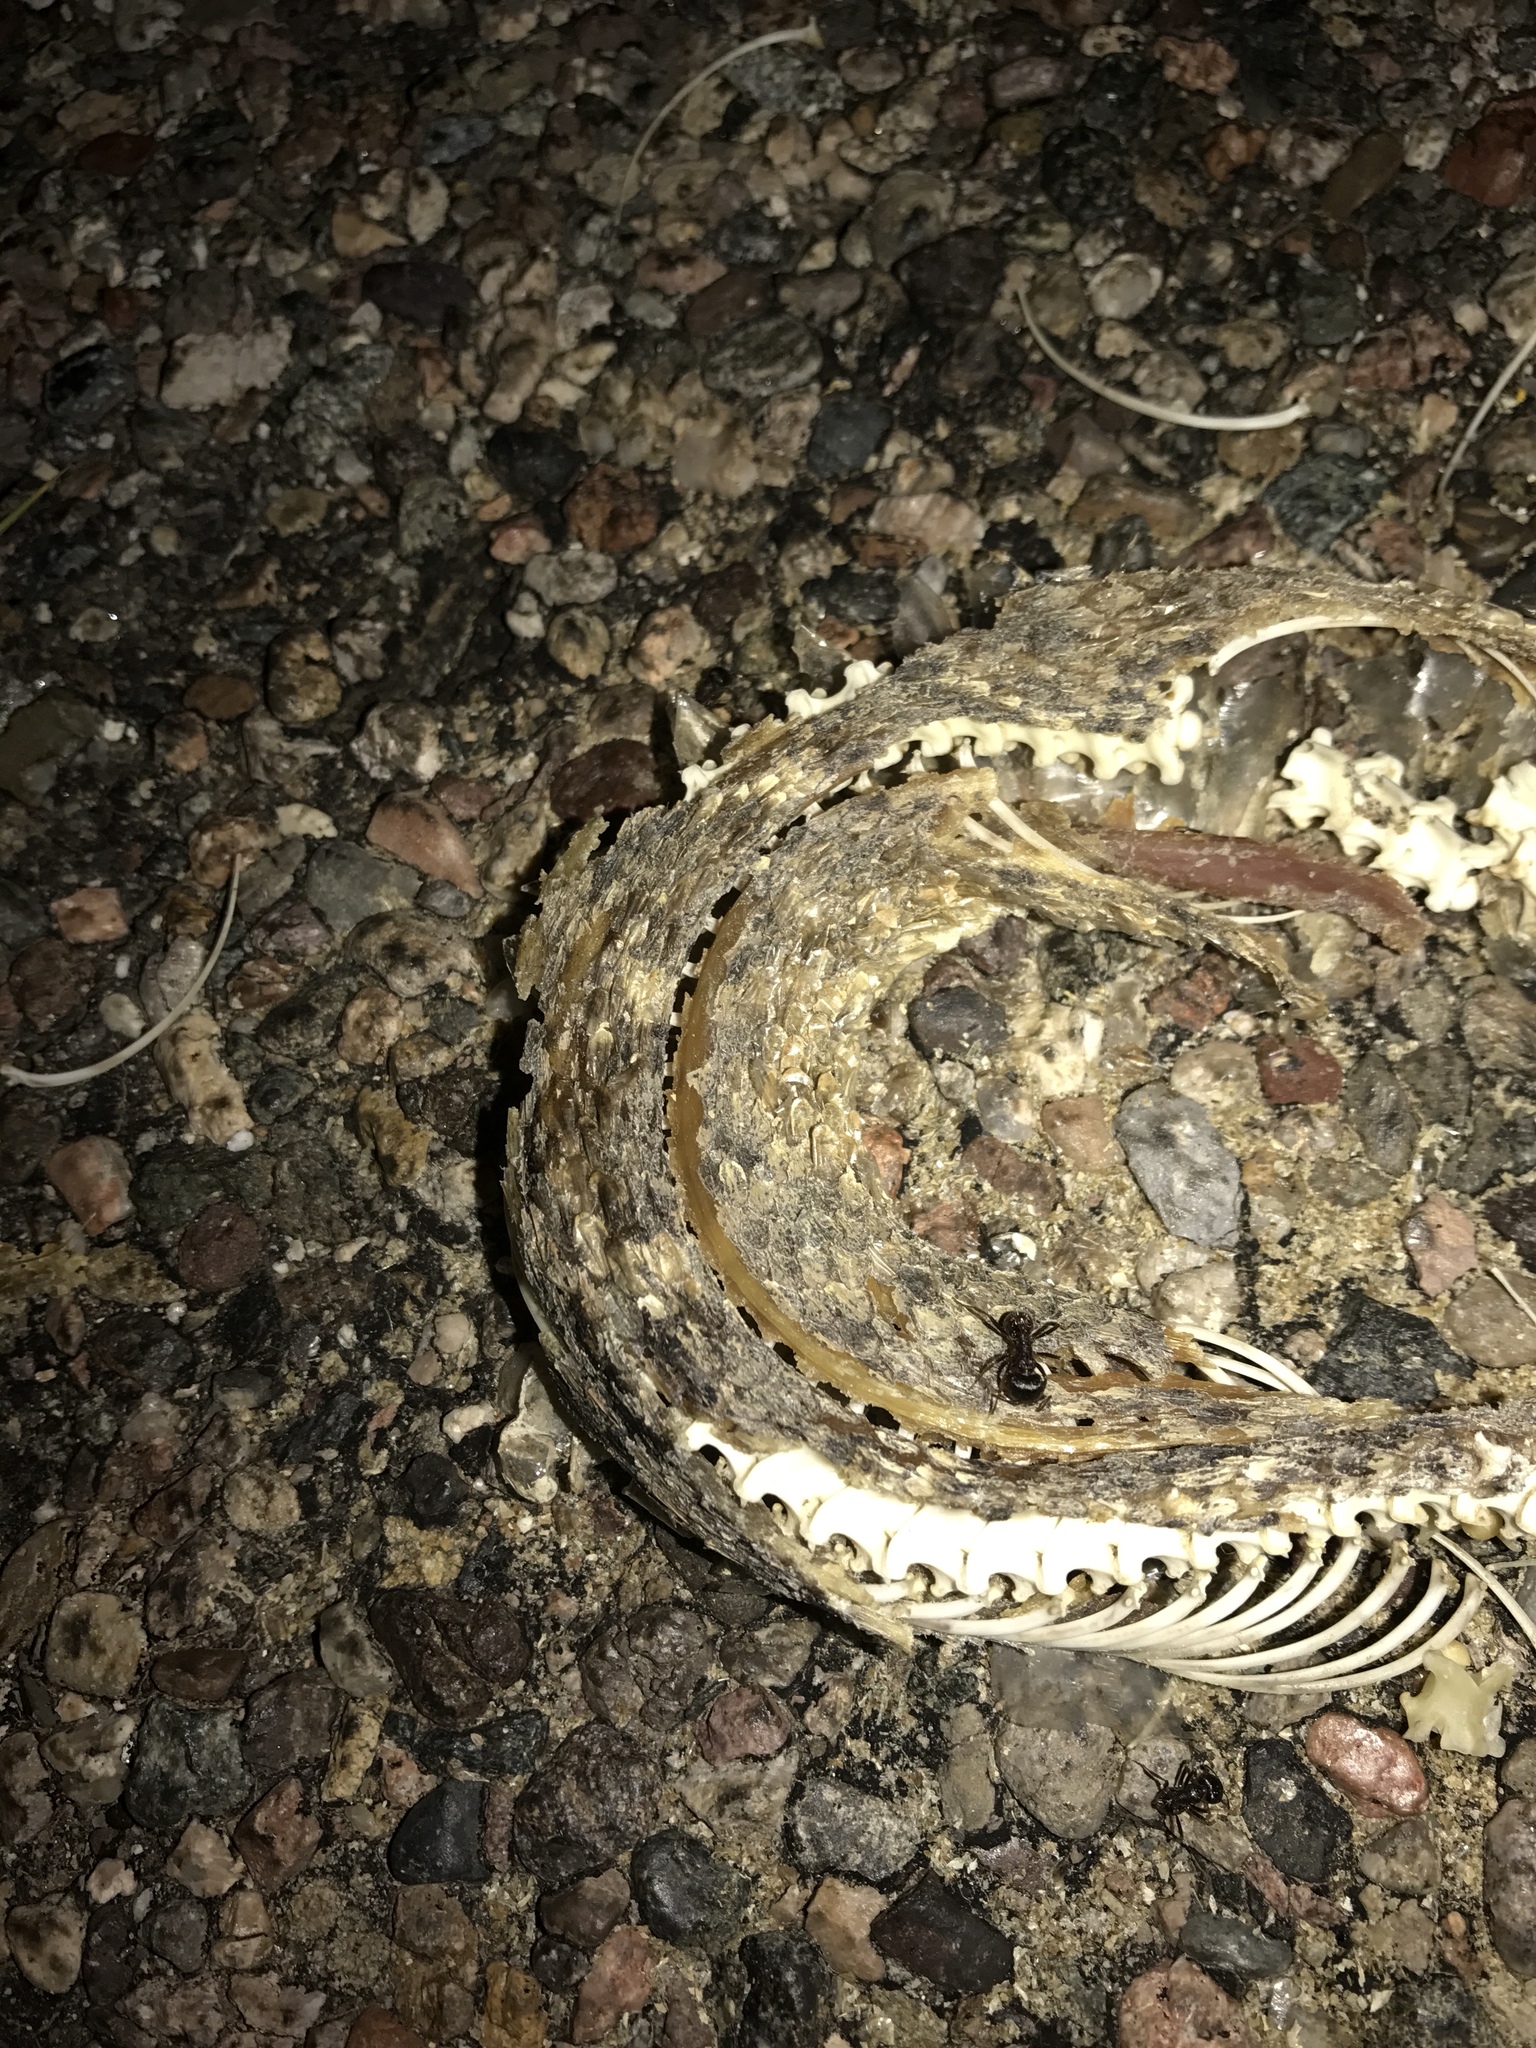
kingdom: Animalia
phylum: Chordata
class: Squamata
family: Viperidae
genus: Crotalus
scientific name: Crotalus
